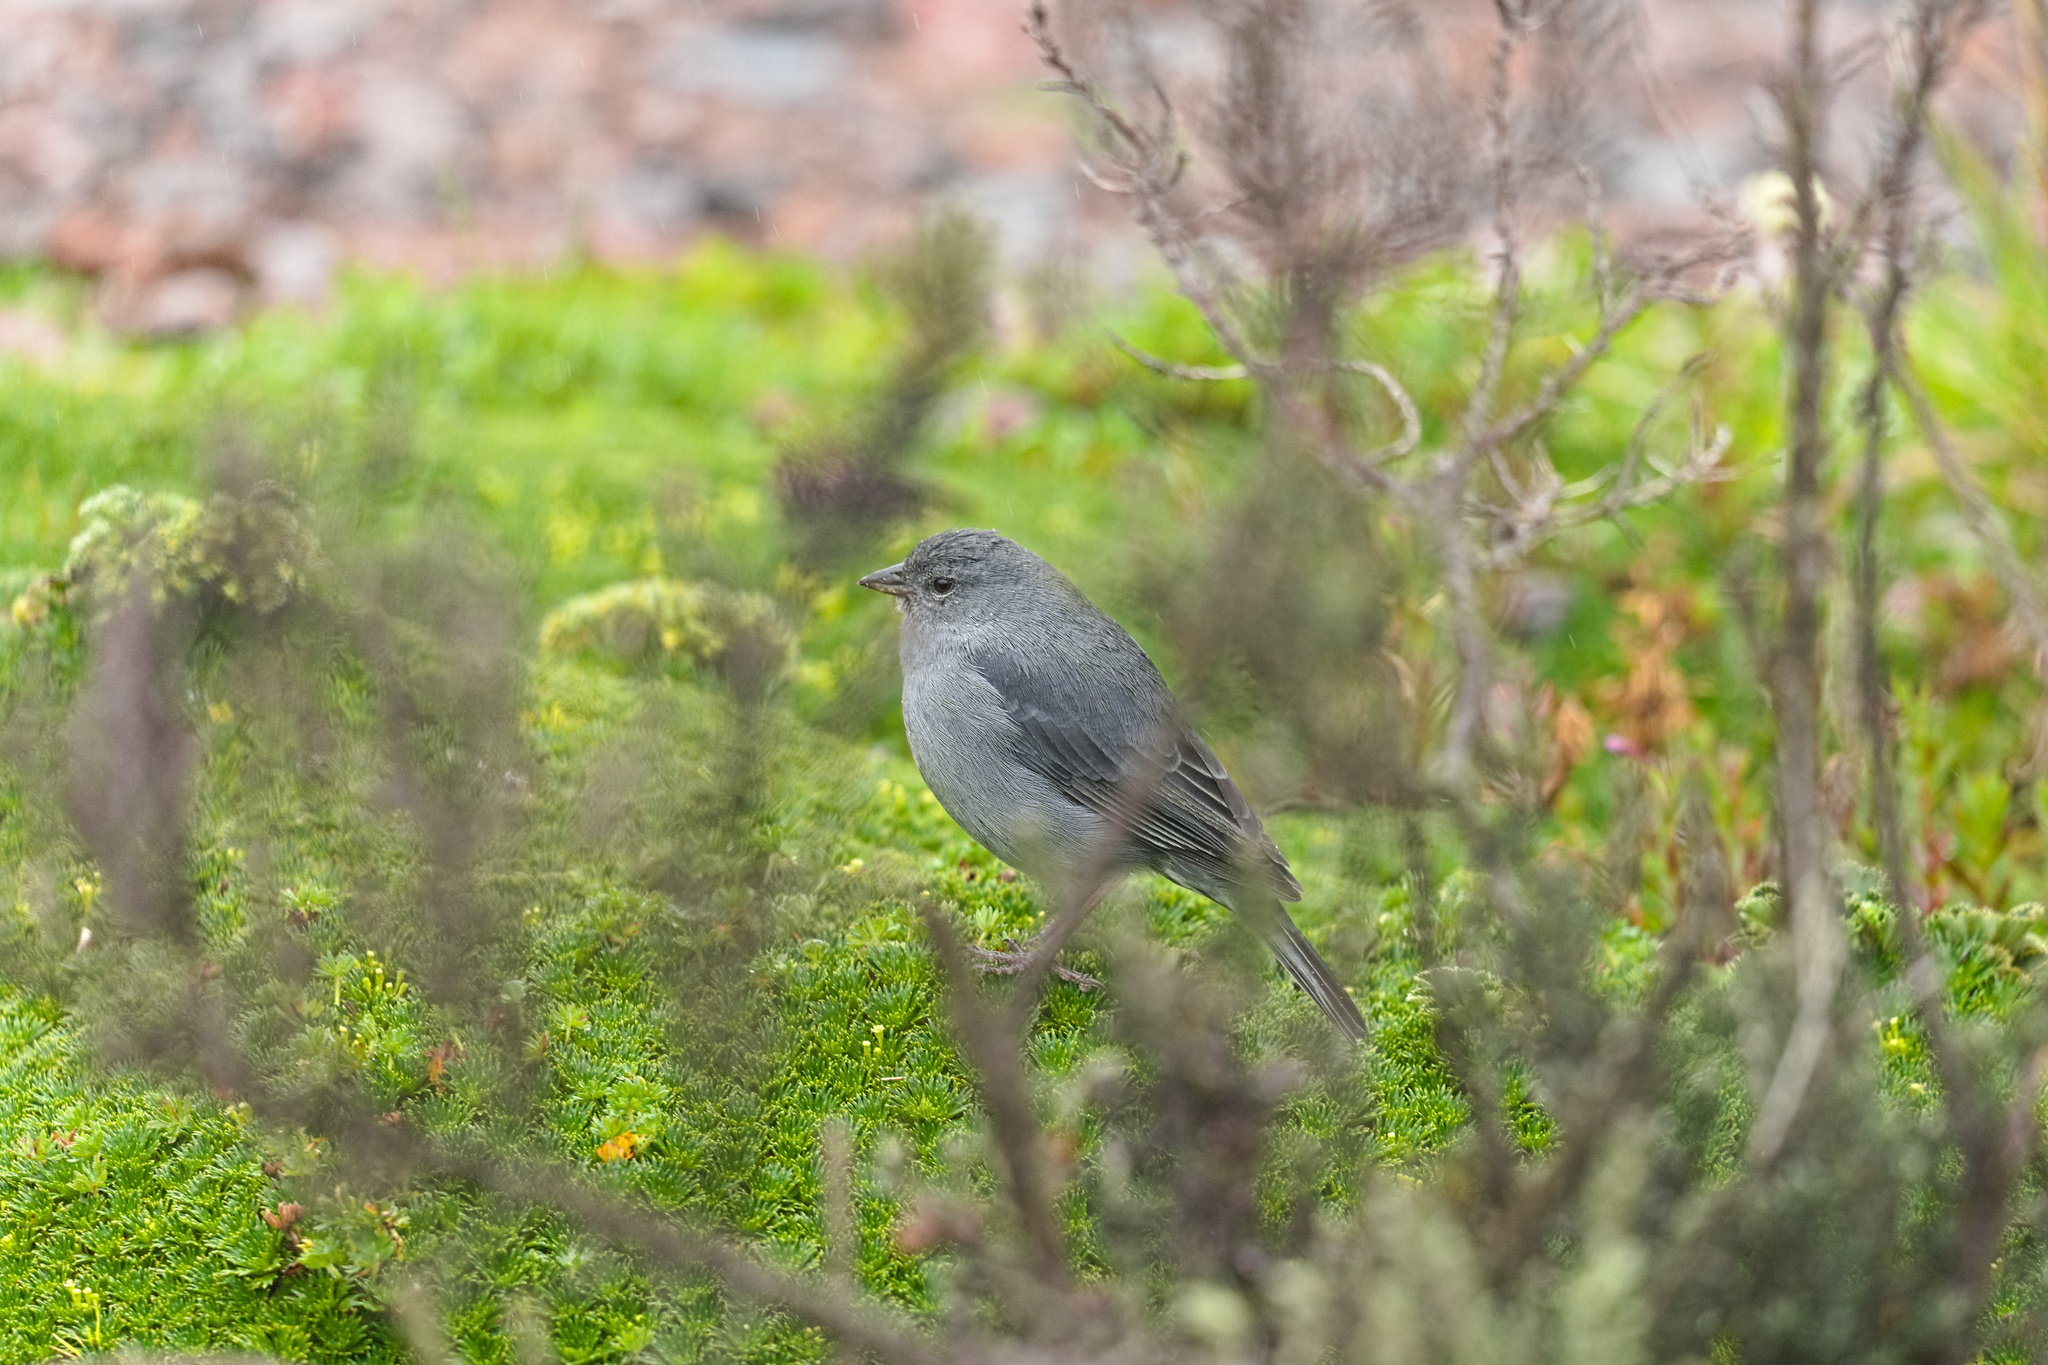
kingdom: Animalia
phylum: Chordata
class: Aves
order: Passeriformes
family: Thraupidae
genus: Geospizopsis
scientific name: Geospizopsis unicolor
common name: Plumbeous sierra-finch
